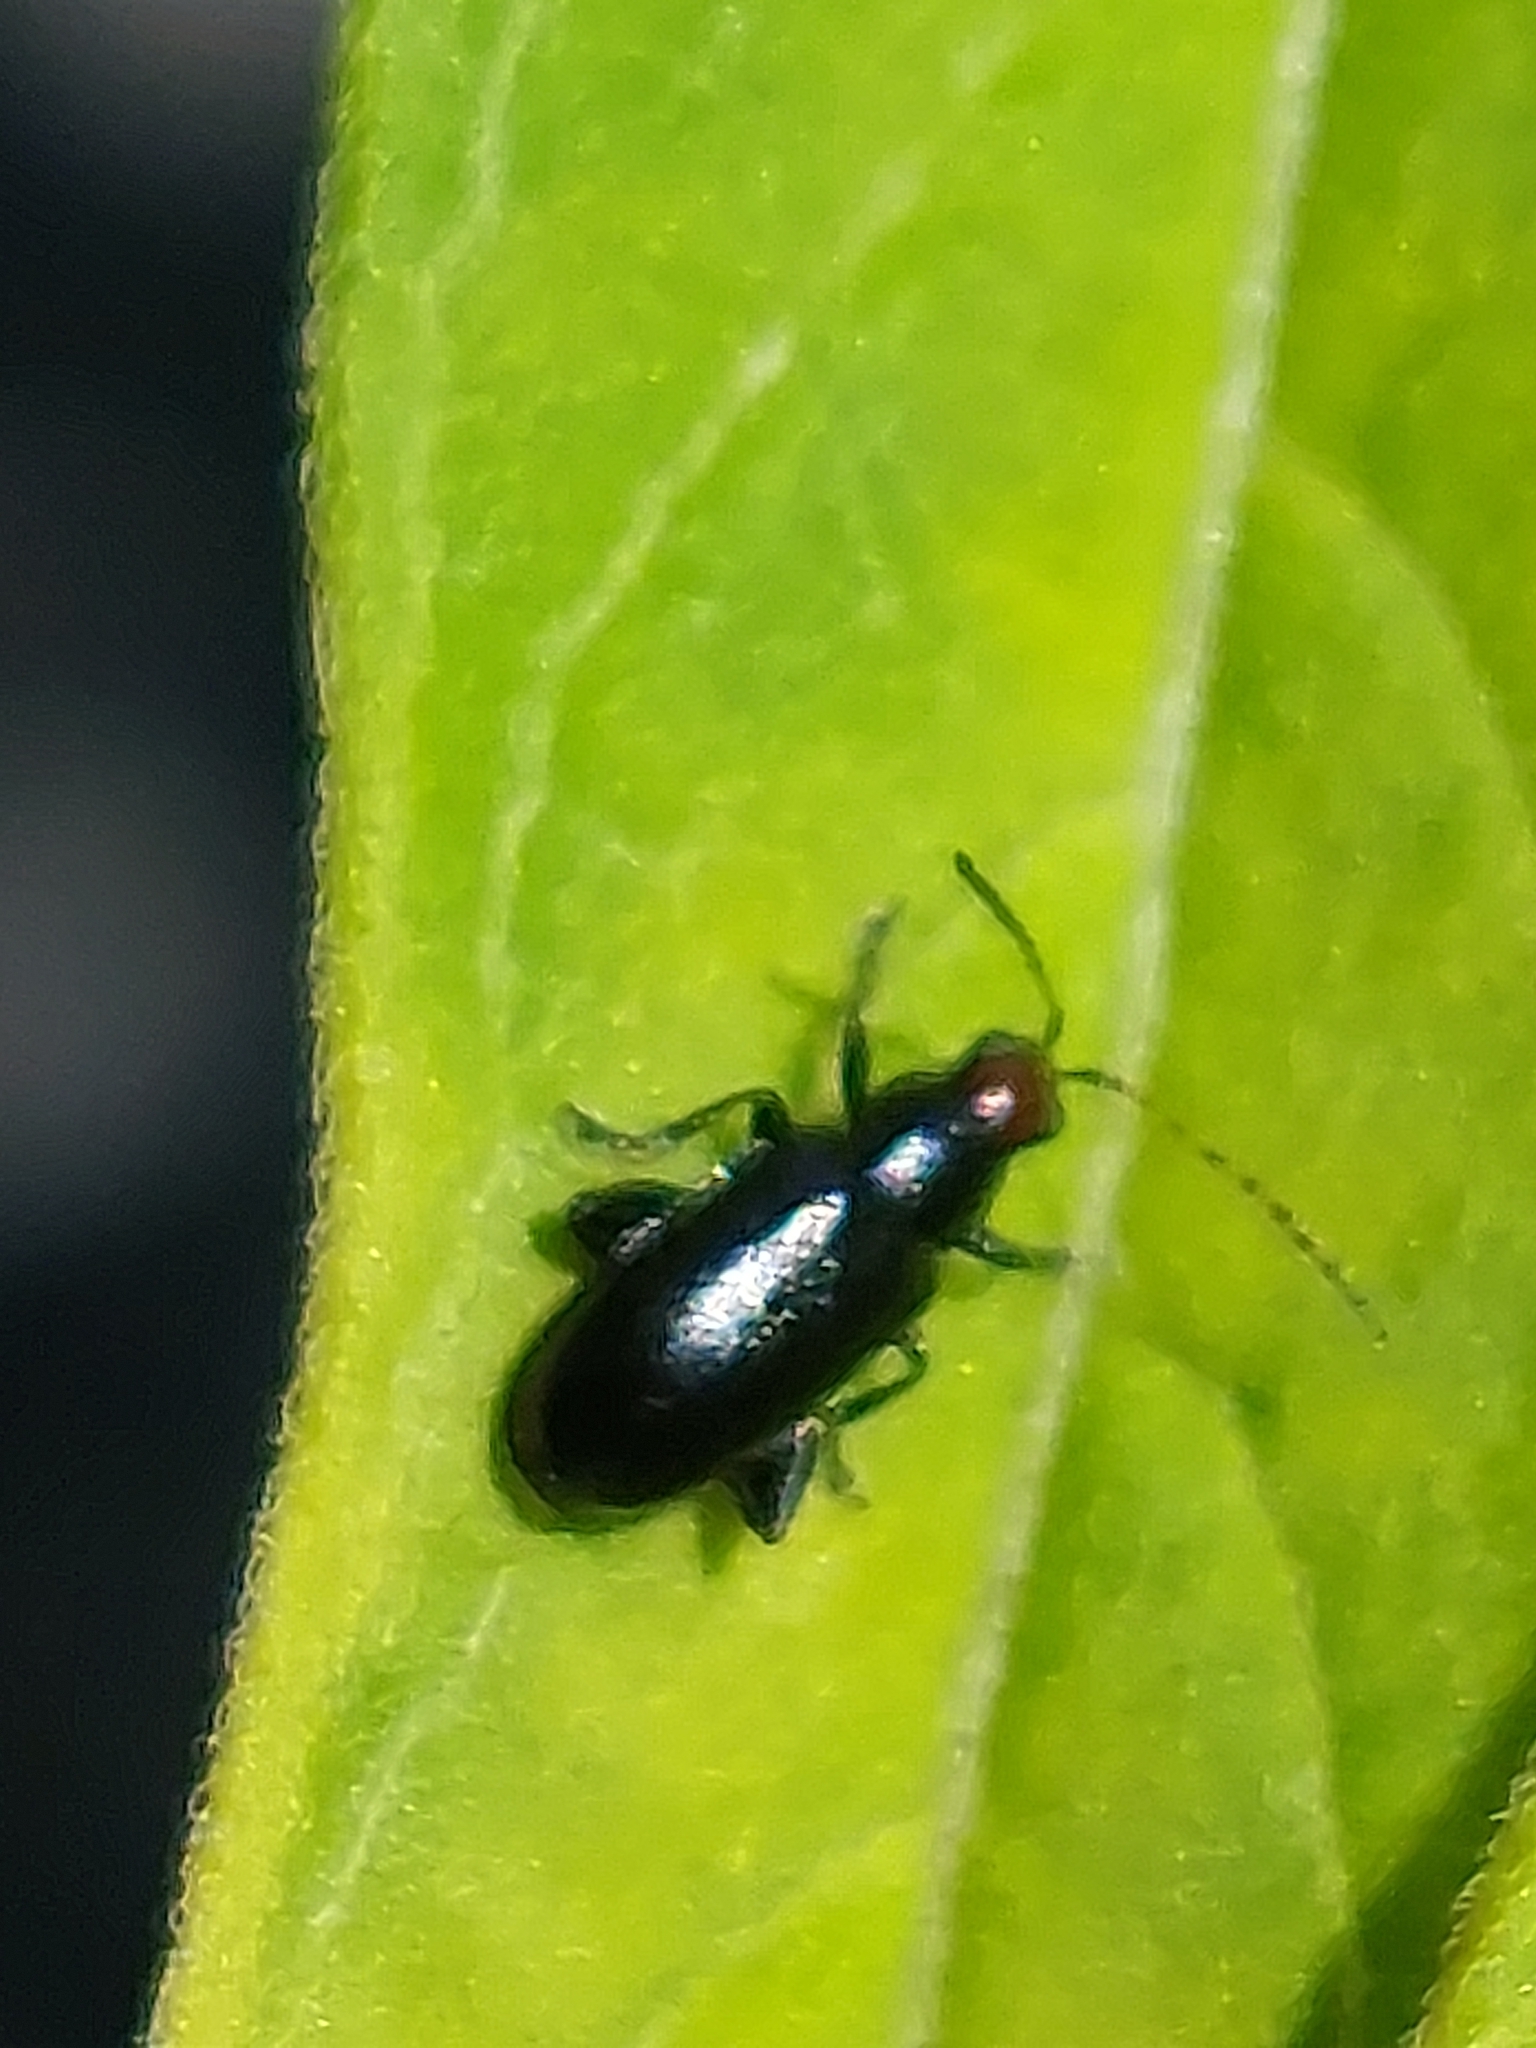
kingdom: Animalia
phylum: Arthropoda
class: Insecta
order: Coleoptera
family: Chrysomelidae
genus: Systena
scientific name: Systena frontalis
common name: Red-headed flea beetle
